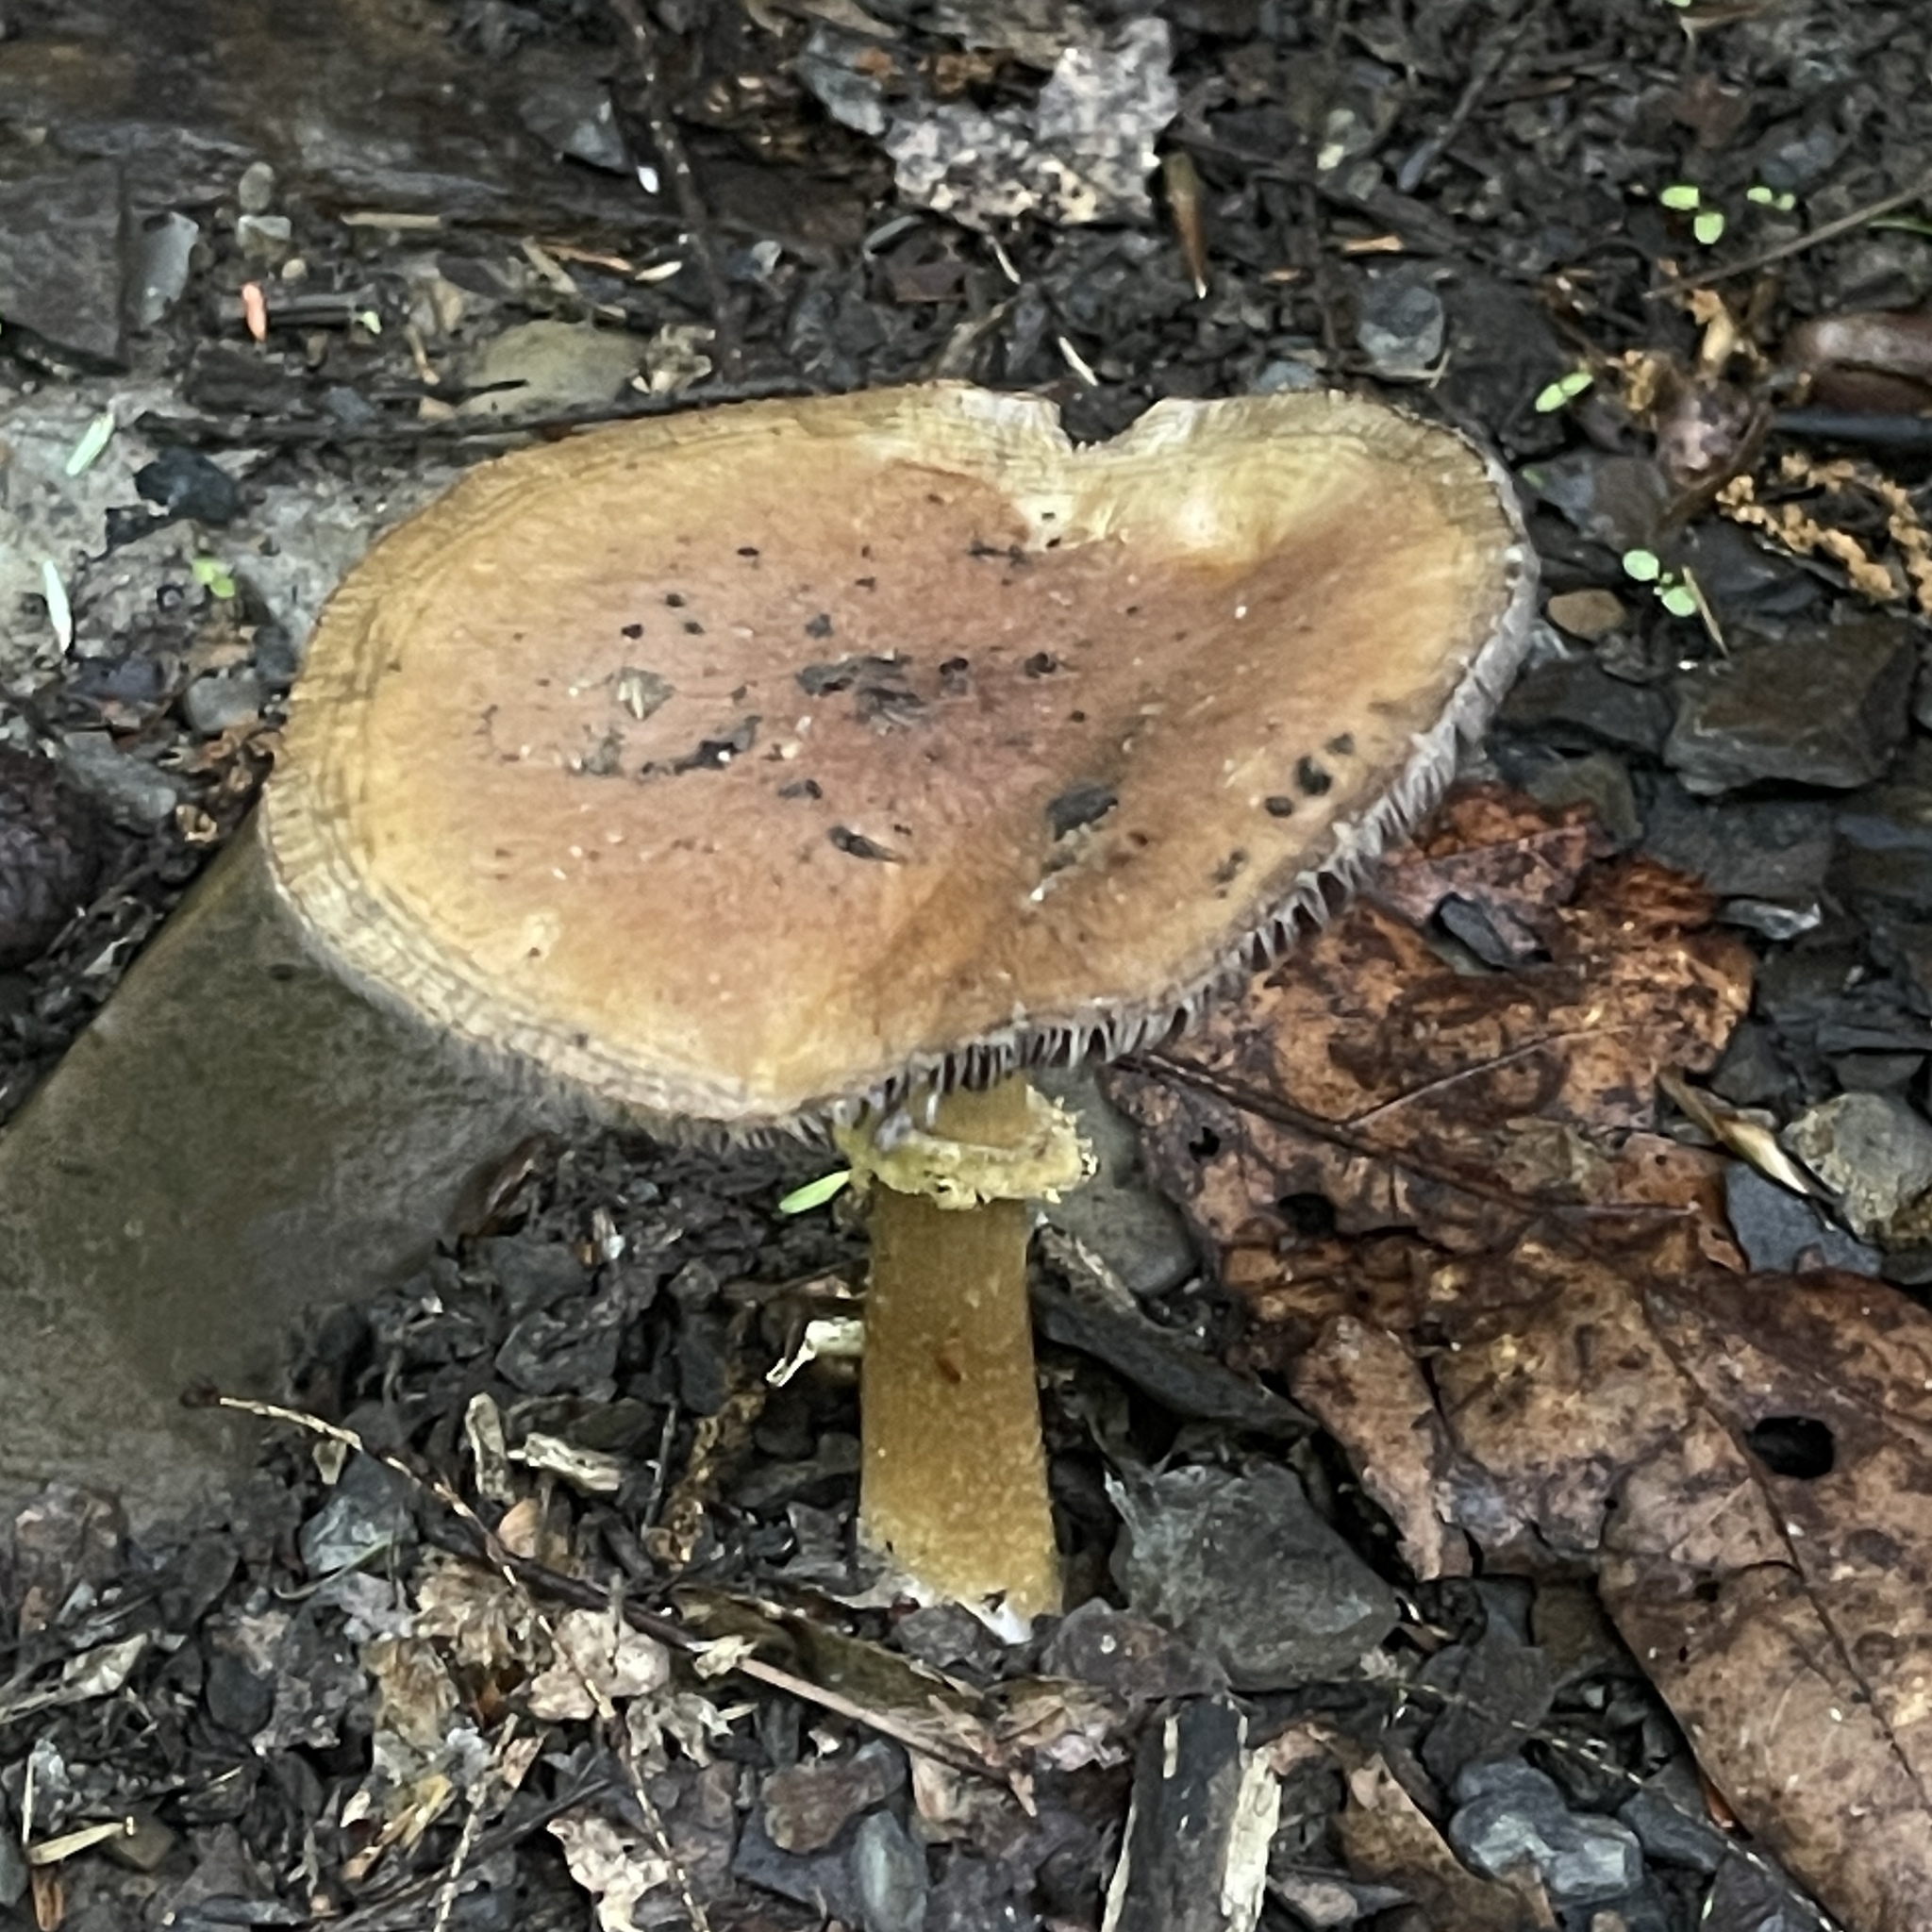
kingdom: Fungi
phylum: Basidiomycota
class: Agaricomycetes
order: Agaricales
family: Strophariaceae
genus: Stropharia
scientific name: Stropharia rugosoannulata
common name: Wine roundhead
